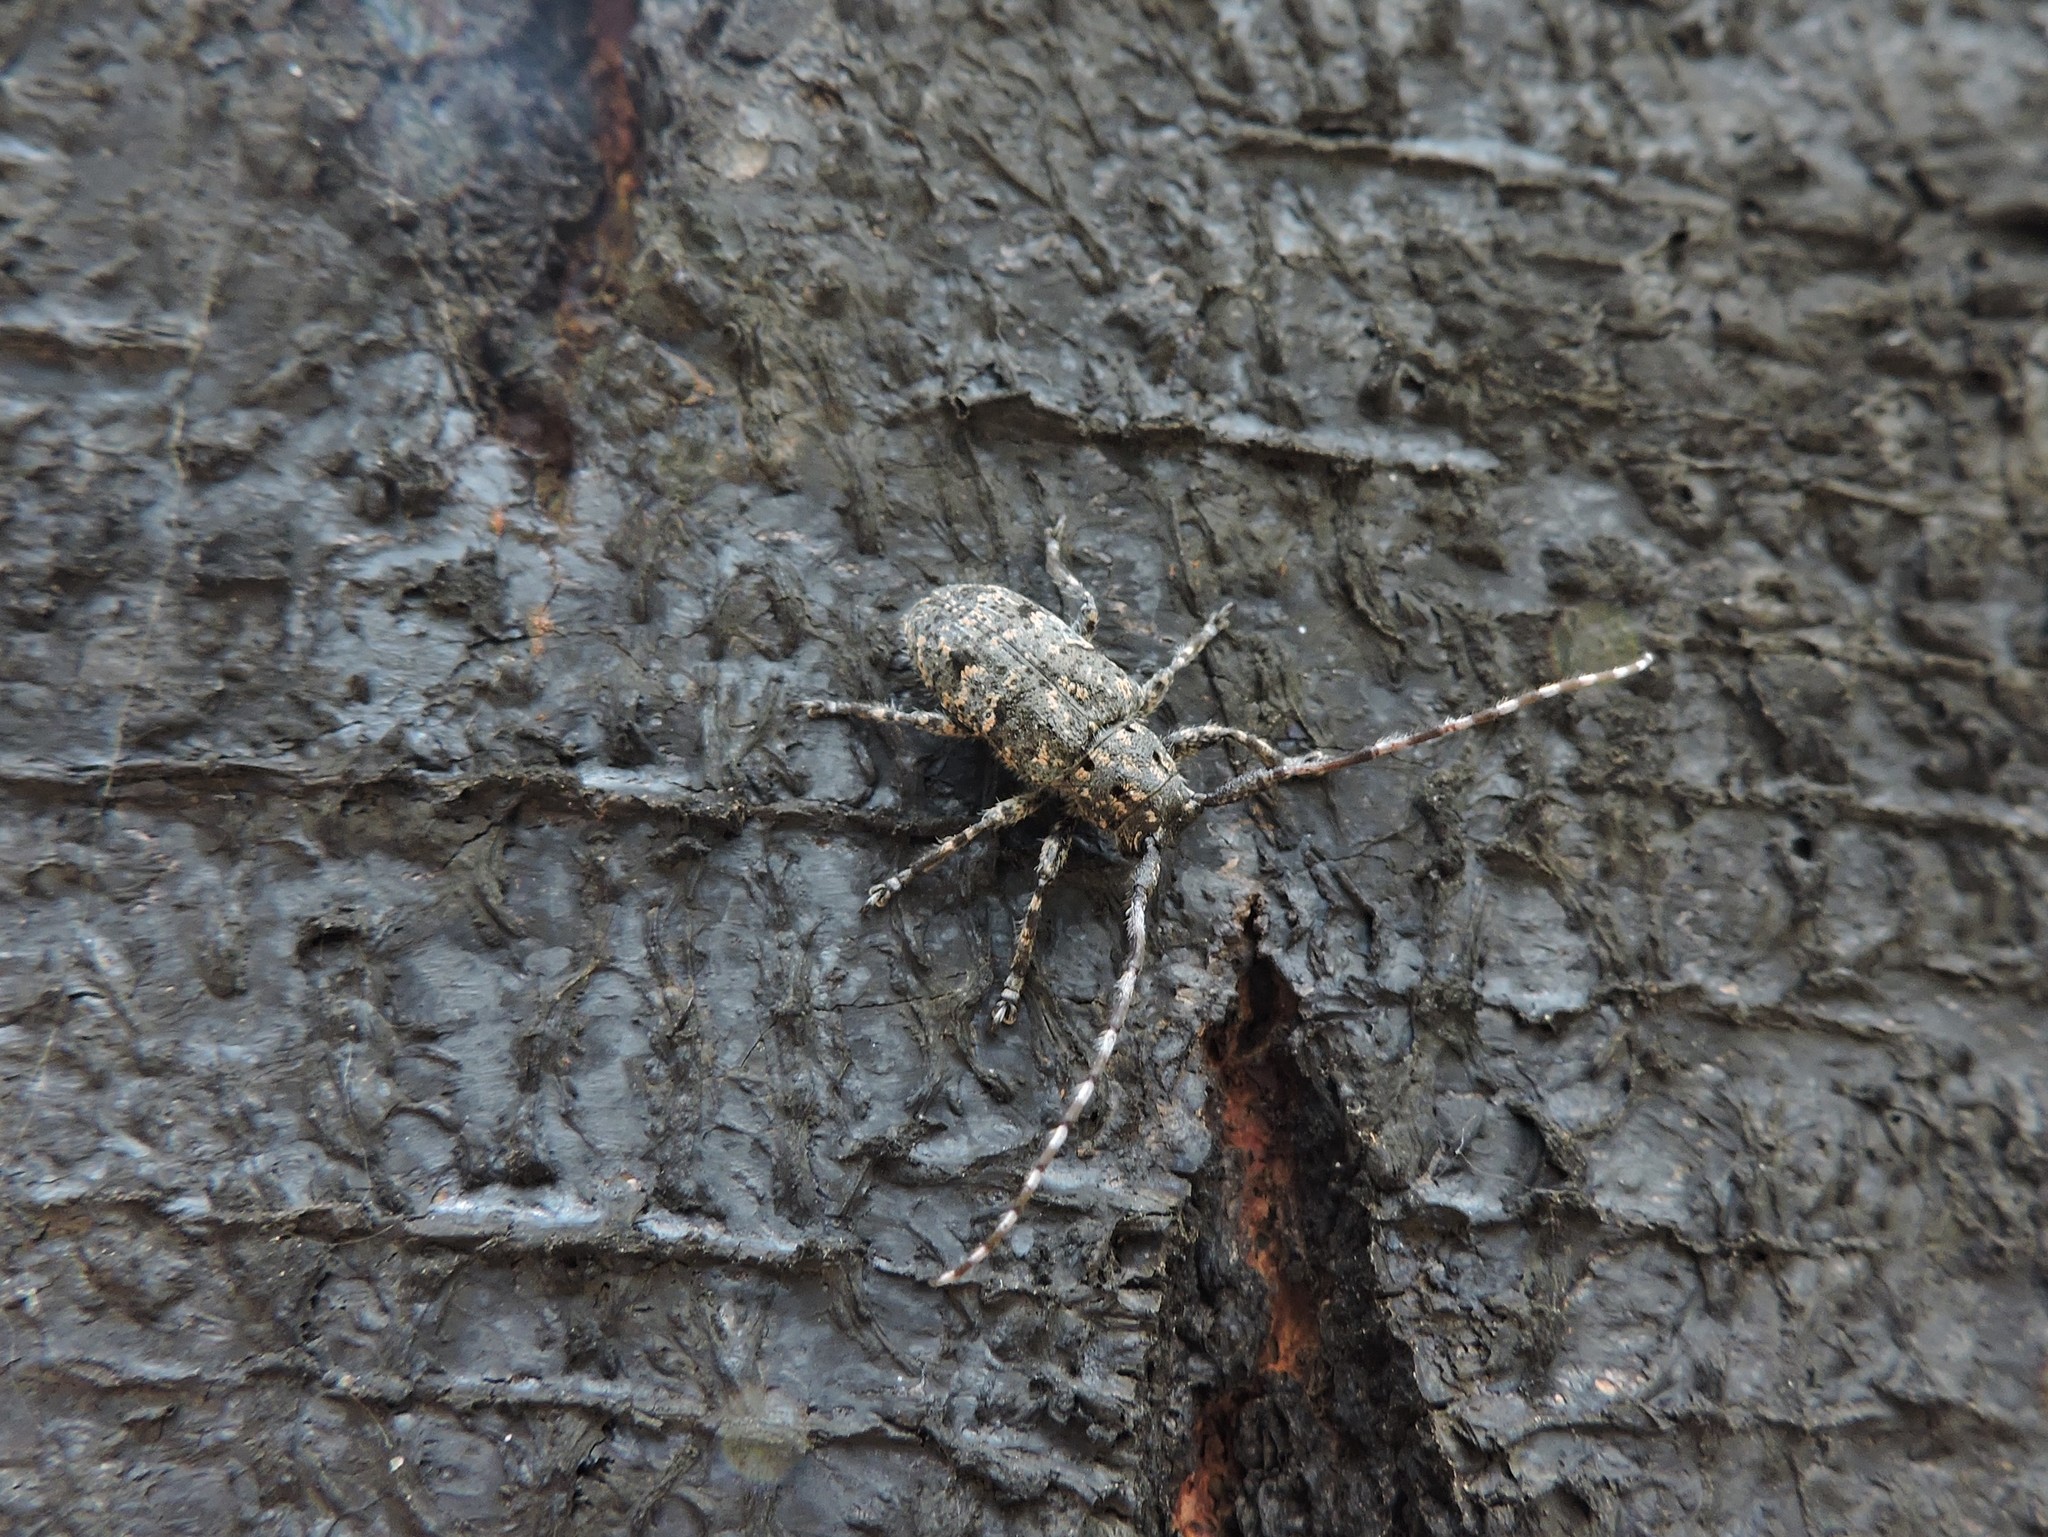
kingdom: Animalia
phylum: Arthropoda
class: Insecta
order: Coleoptera
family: Cerambycidae
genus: Mesosa
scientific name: Mesosa myops
